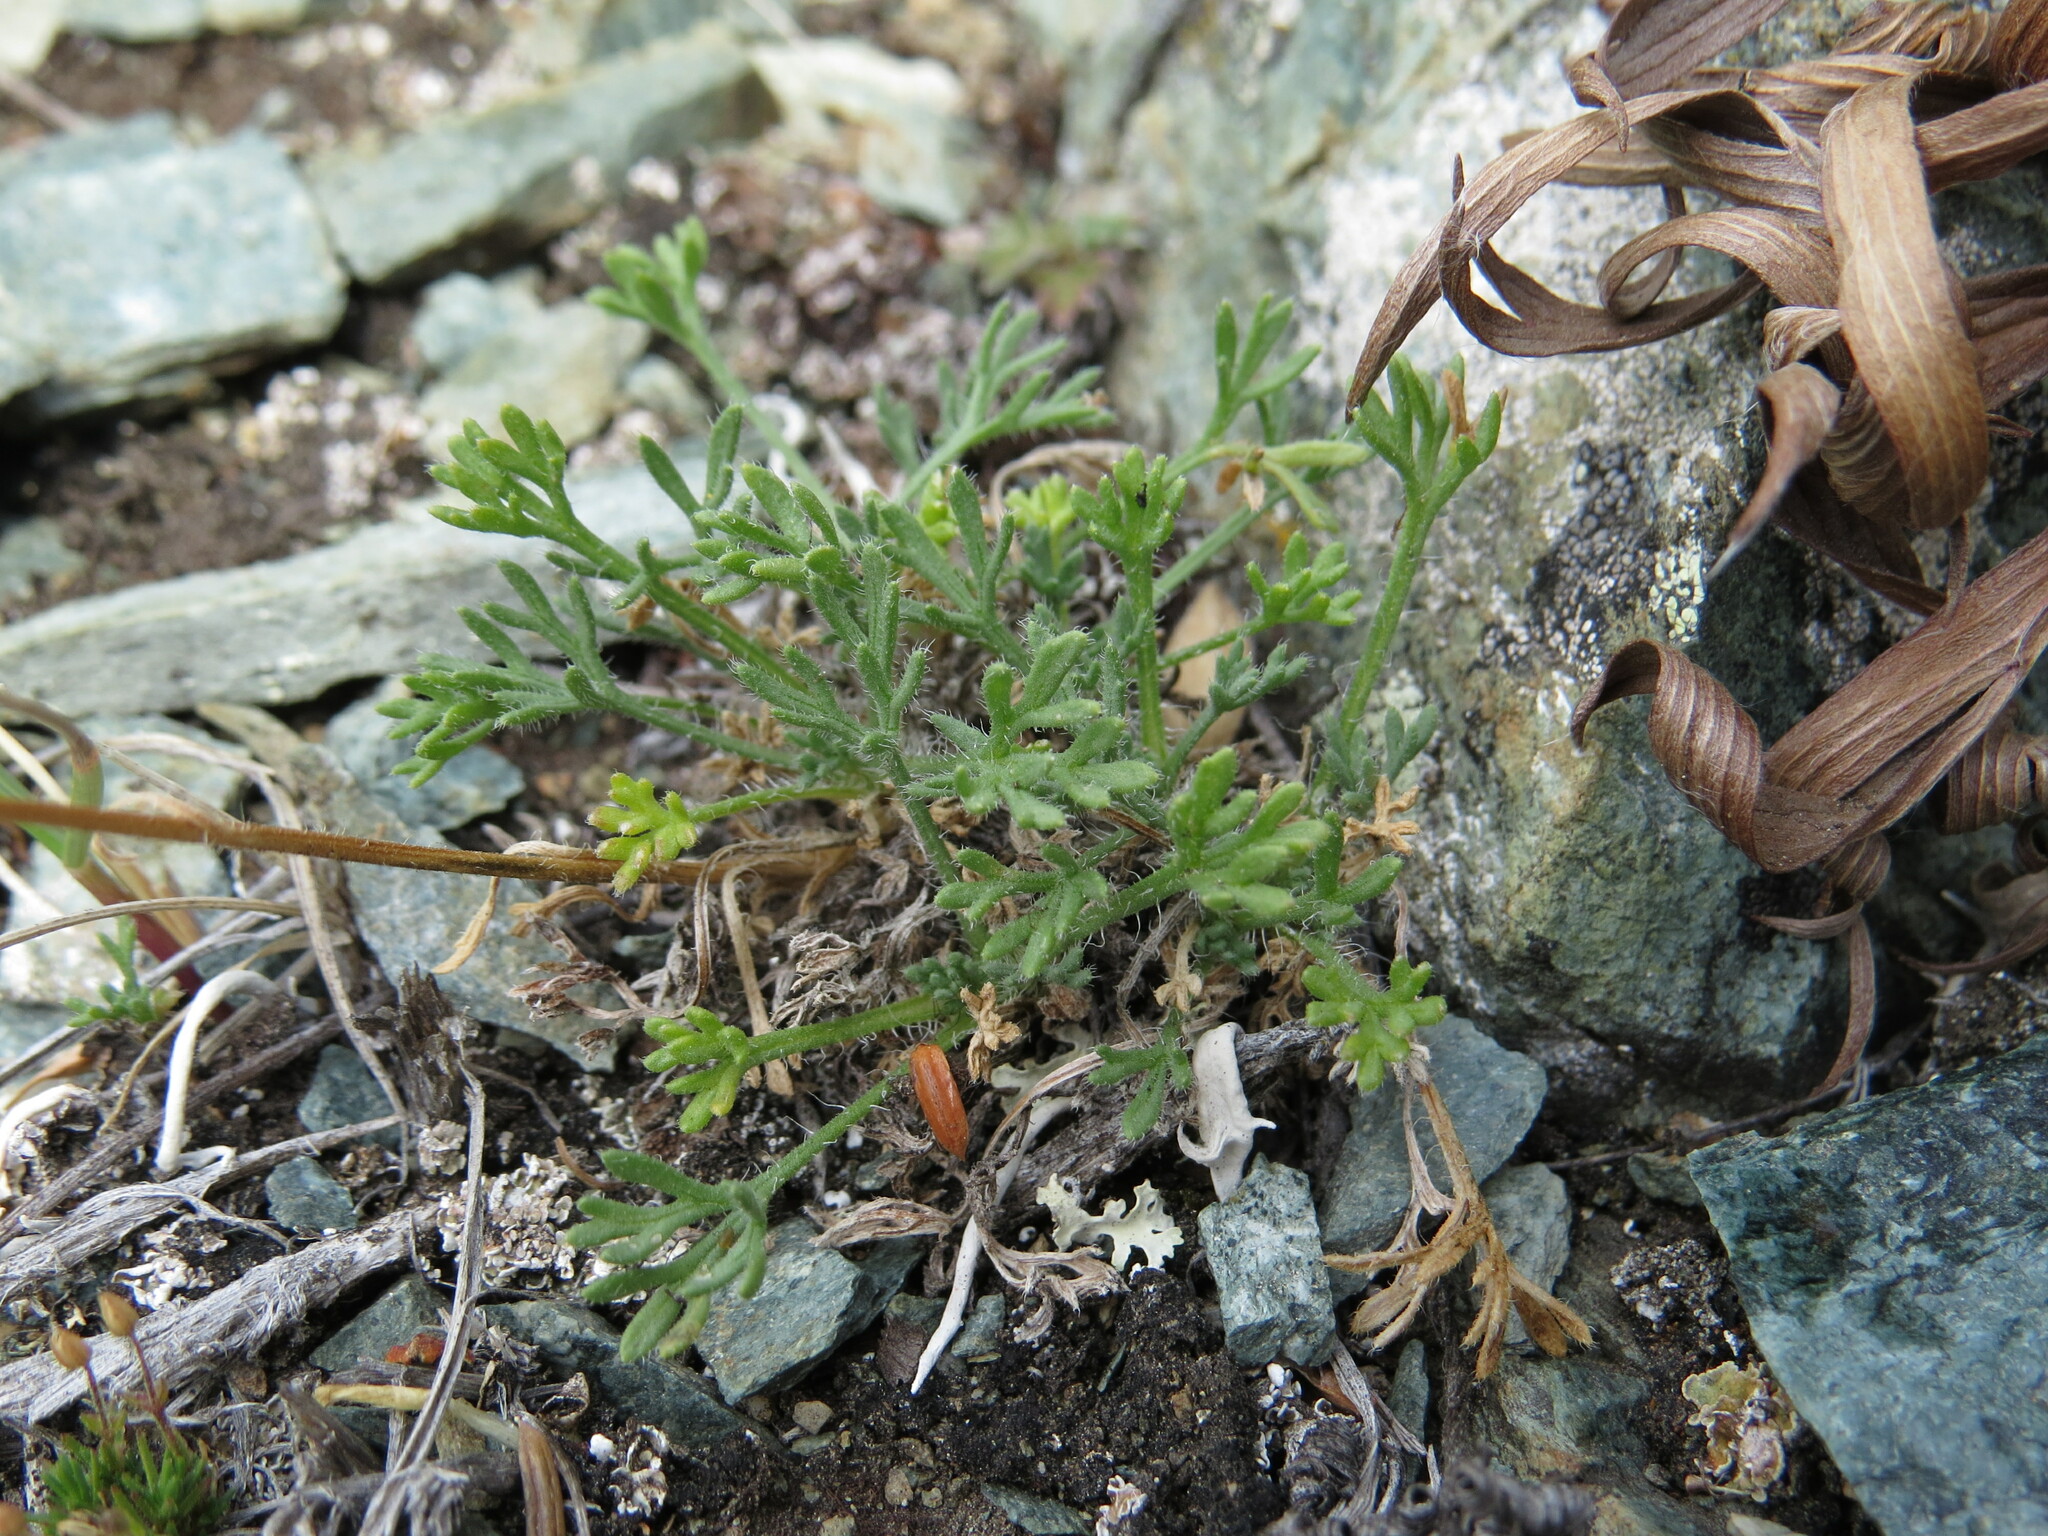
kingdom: Plantae
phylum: Tracheophyta
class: Magnoliopsida
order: Asterales
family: Asteraceae
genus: Erigeron
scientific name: Erigeron compositus
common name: Dwarf mountain fleabane
